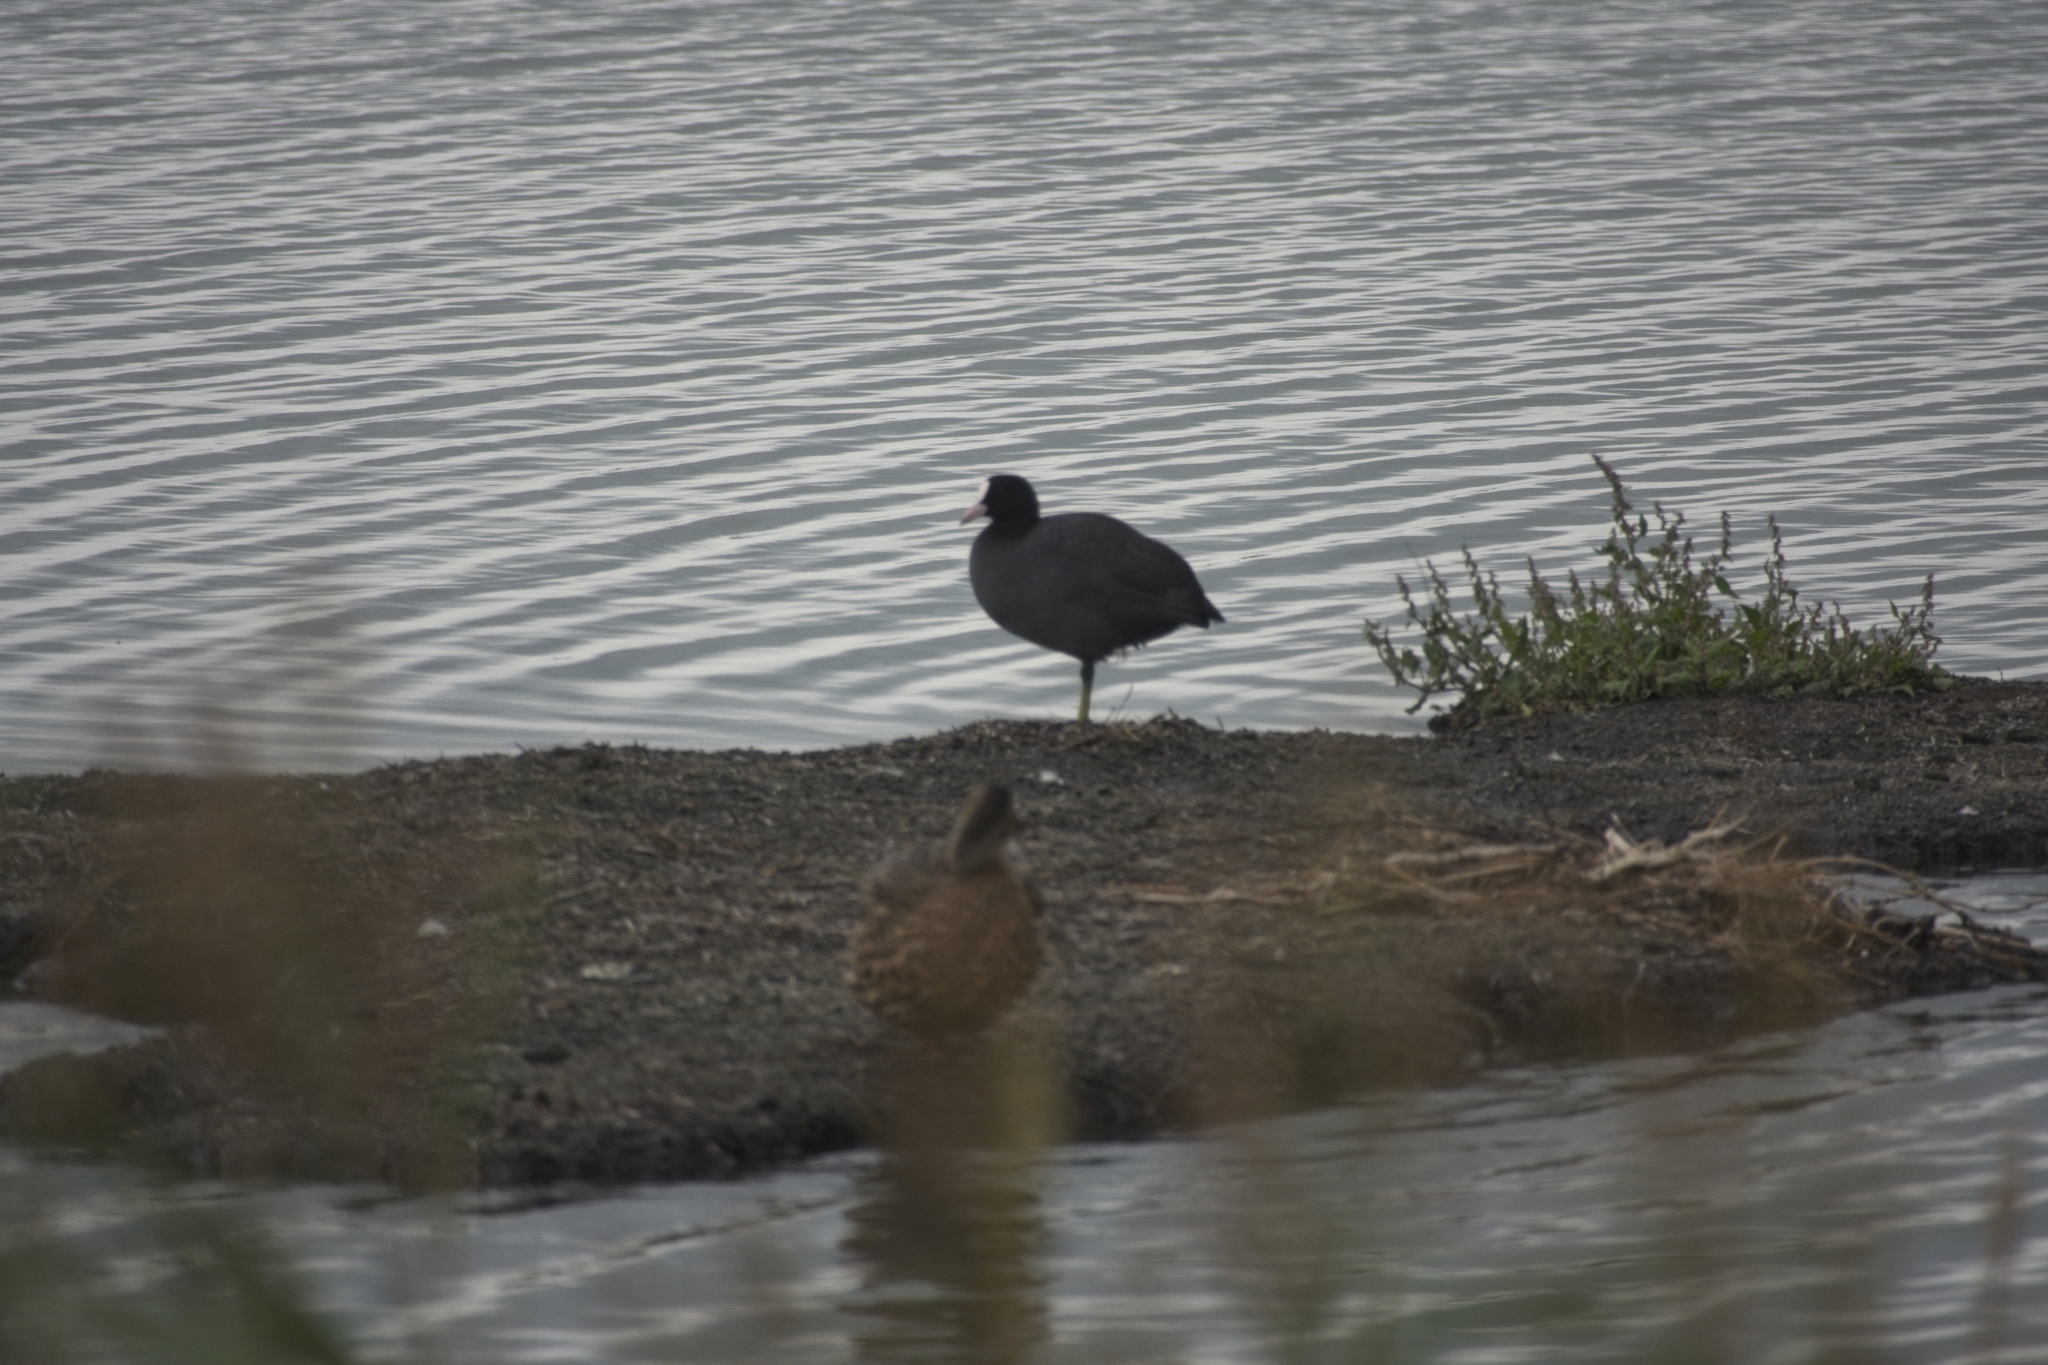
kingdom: Animalia
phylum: Chordata
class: Aves
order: Gruiformes
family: Rallidae
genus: Fulica
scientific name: Fulica atra
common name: Eurasian coot
